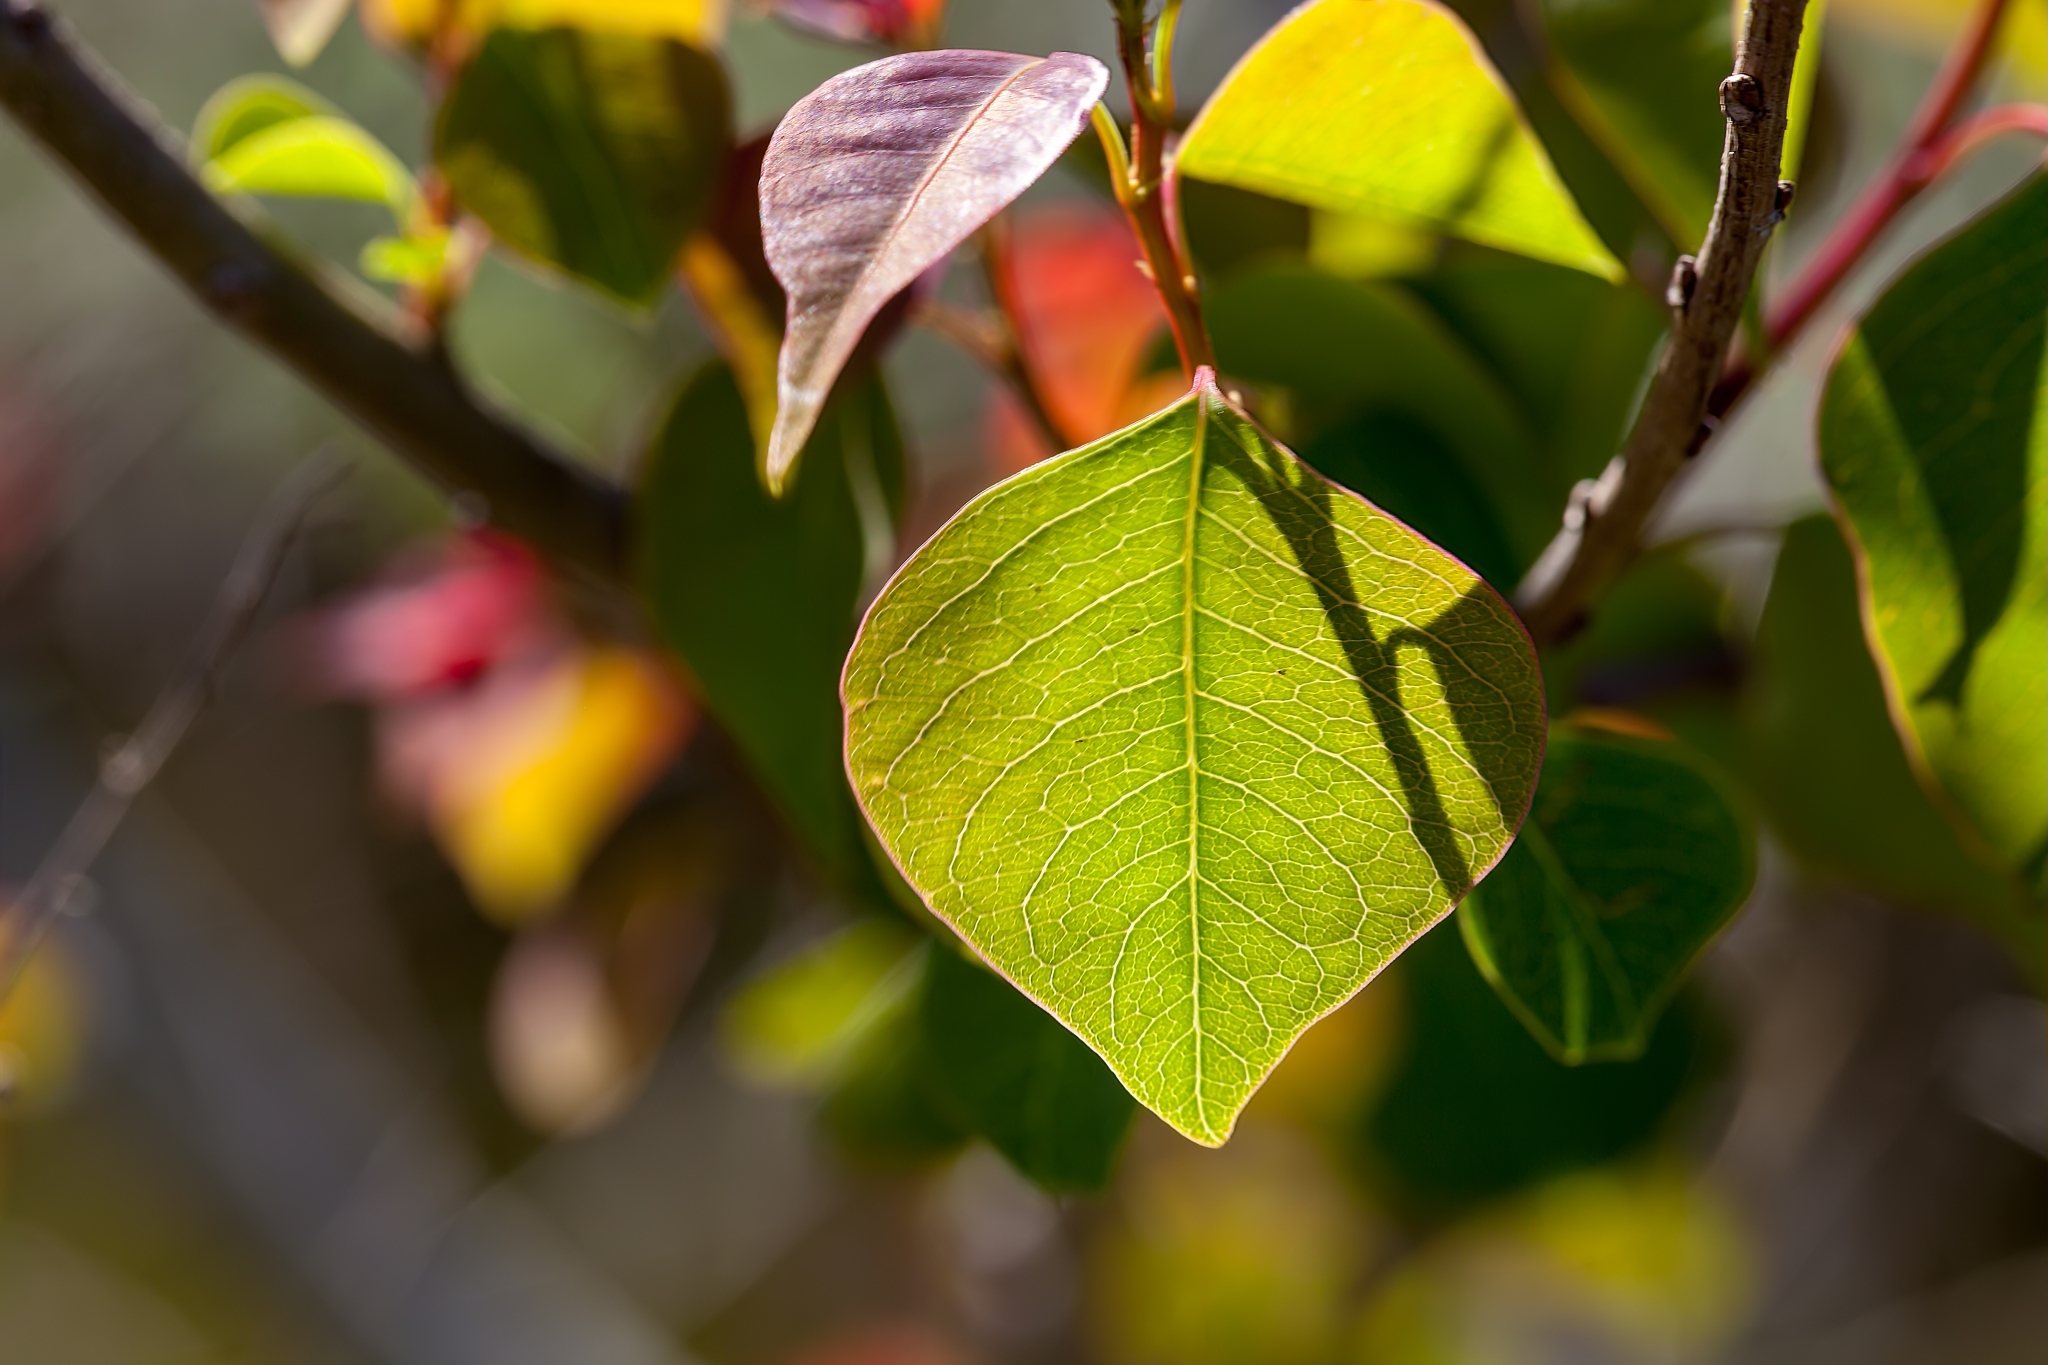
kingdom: Plantae
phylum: Tracheophyta
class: Magnoliopsida
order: Malpighiales
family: Euphorbiaceae
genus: Triadica
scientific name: Triadica sebifera
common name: Chinese tallow
